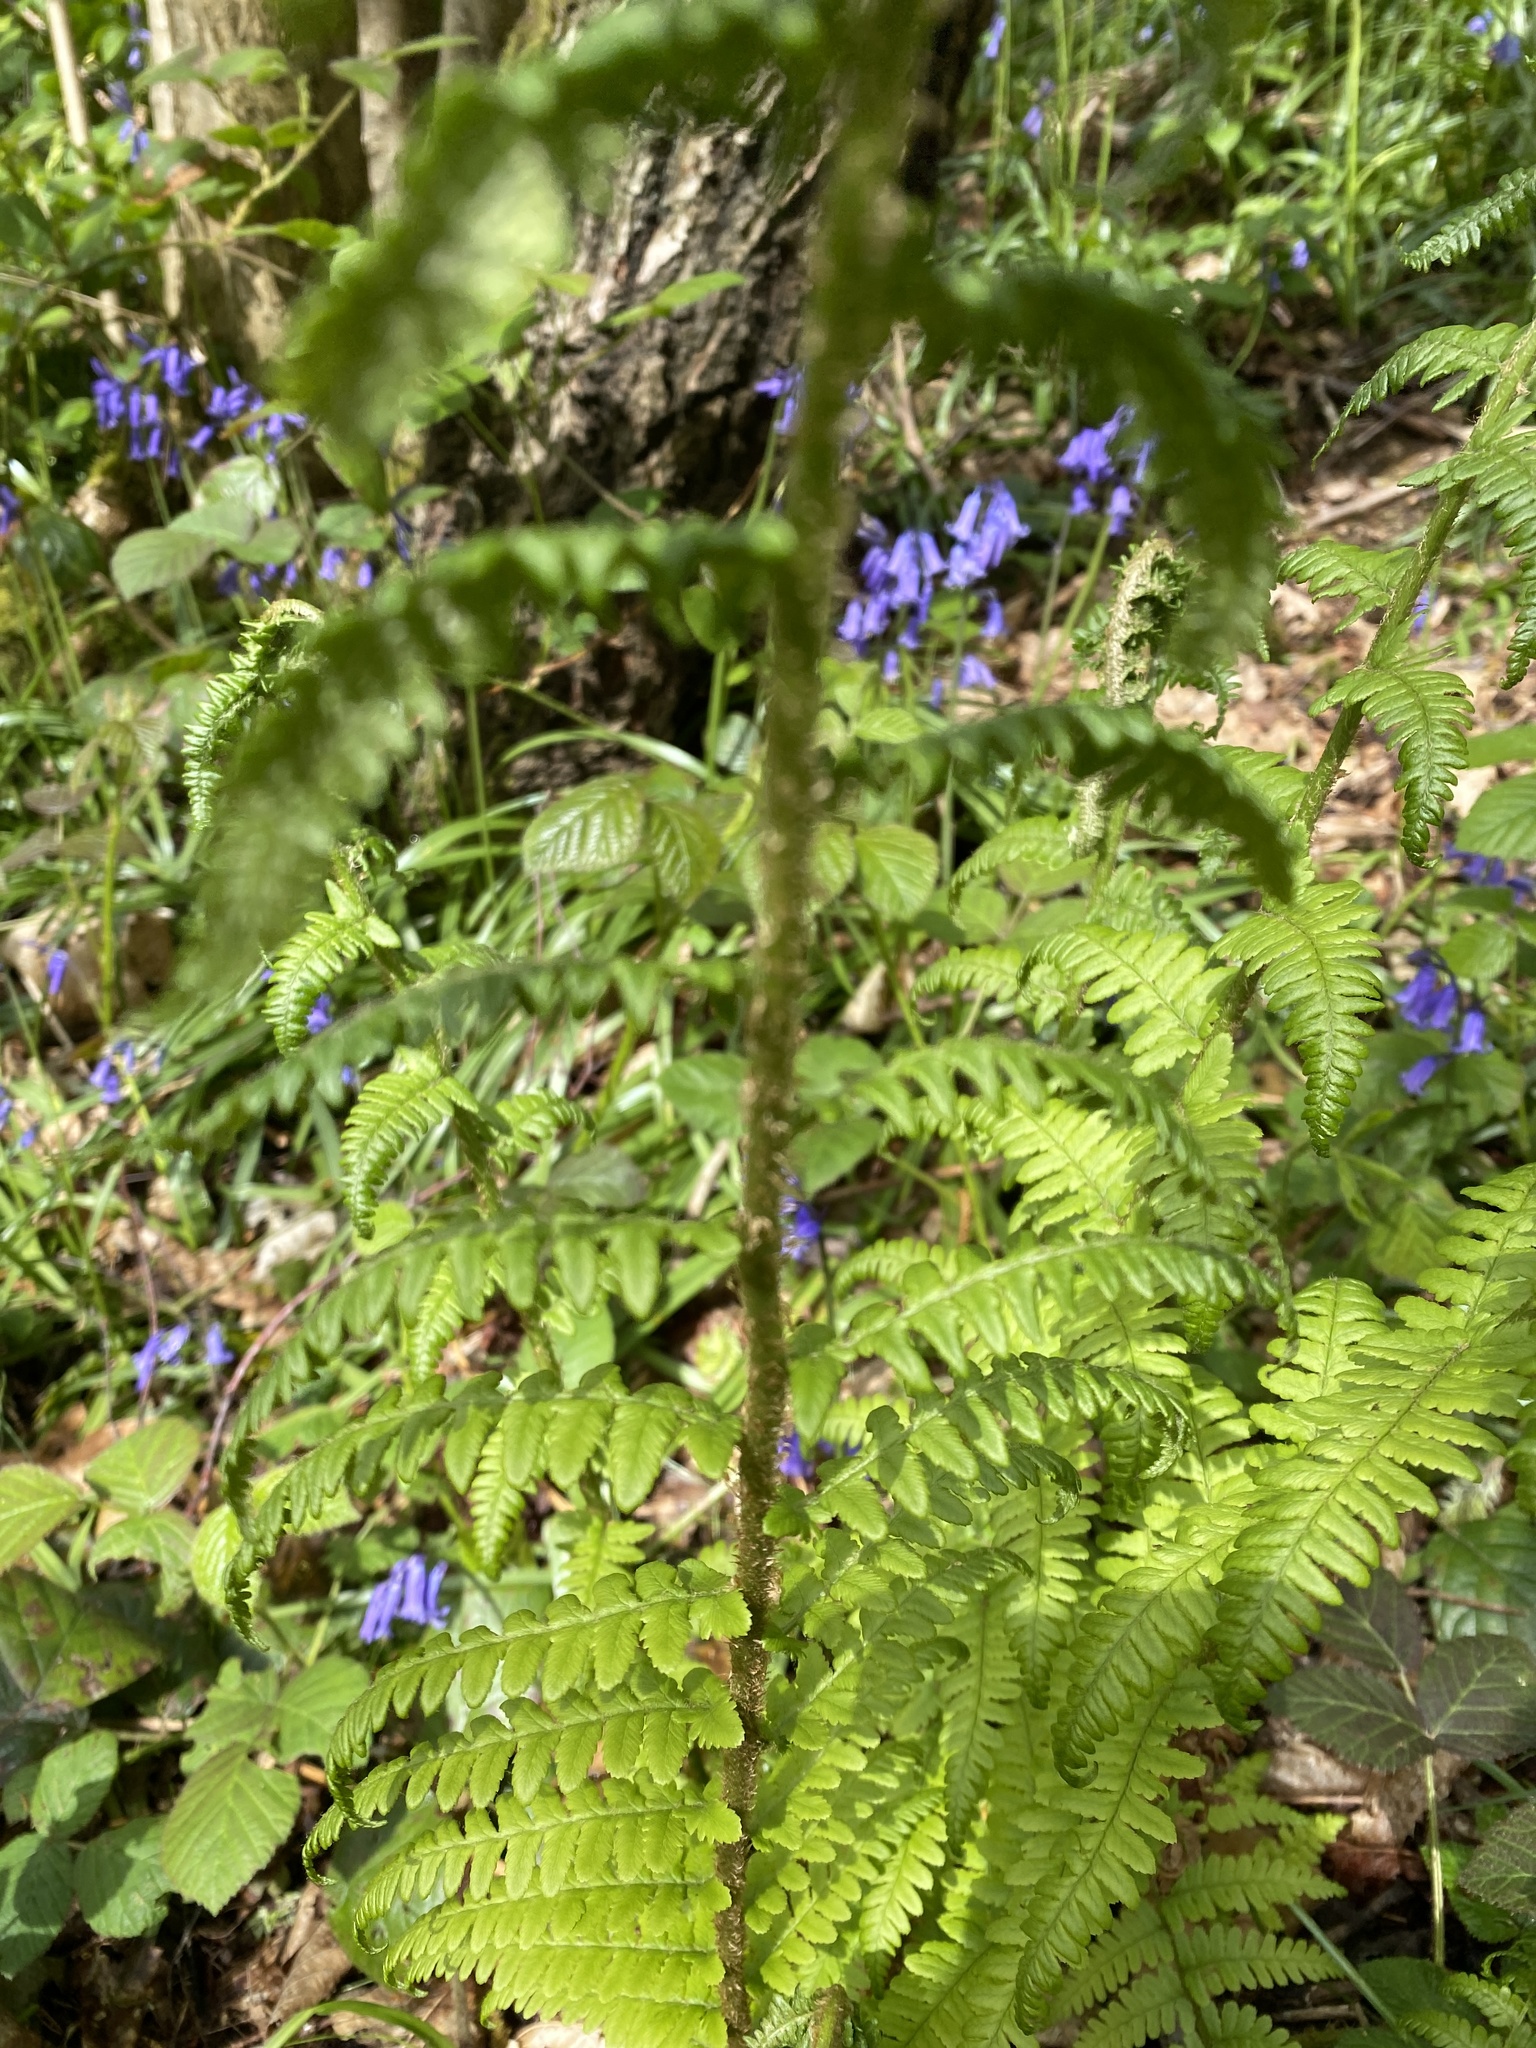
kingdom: Plantae
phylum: Tracheophyta
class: Polypodiopsida
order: Polypodiales
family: Dryopteridaceae
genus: Dryopteris
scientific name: Dryopteris filix-mas
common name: Male fern
